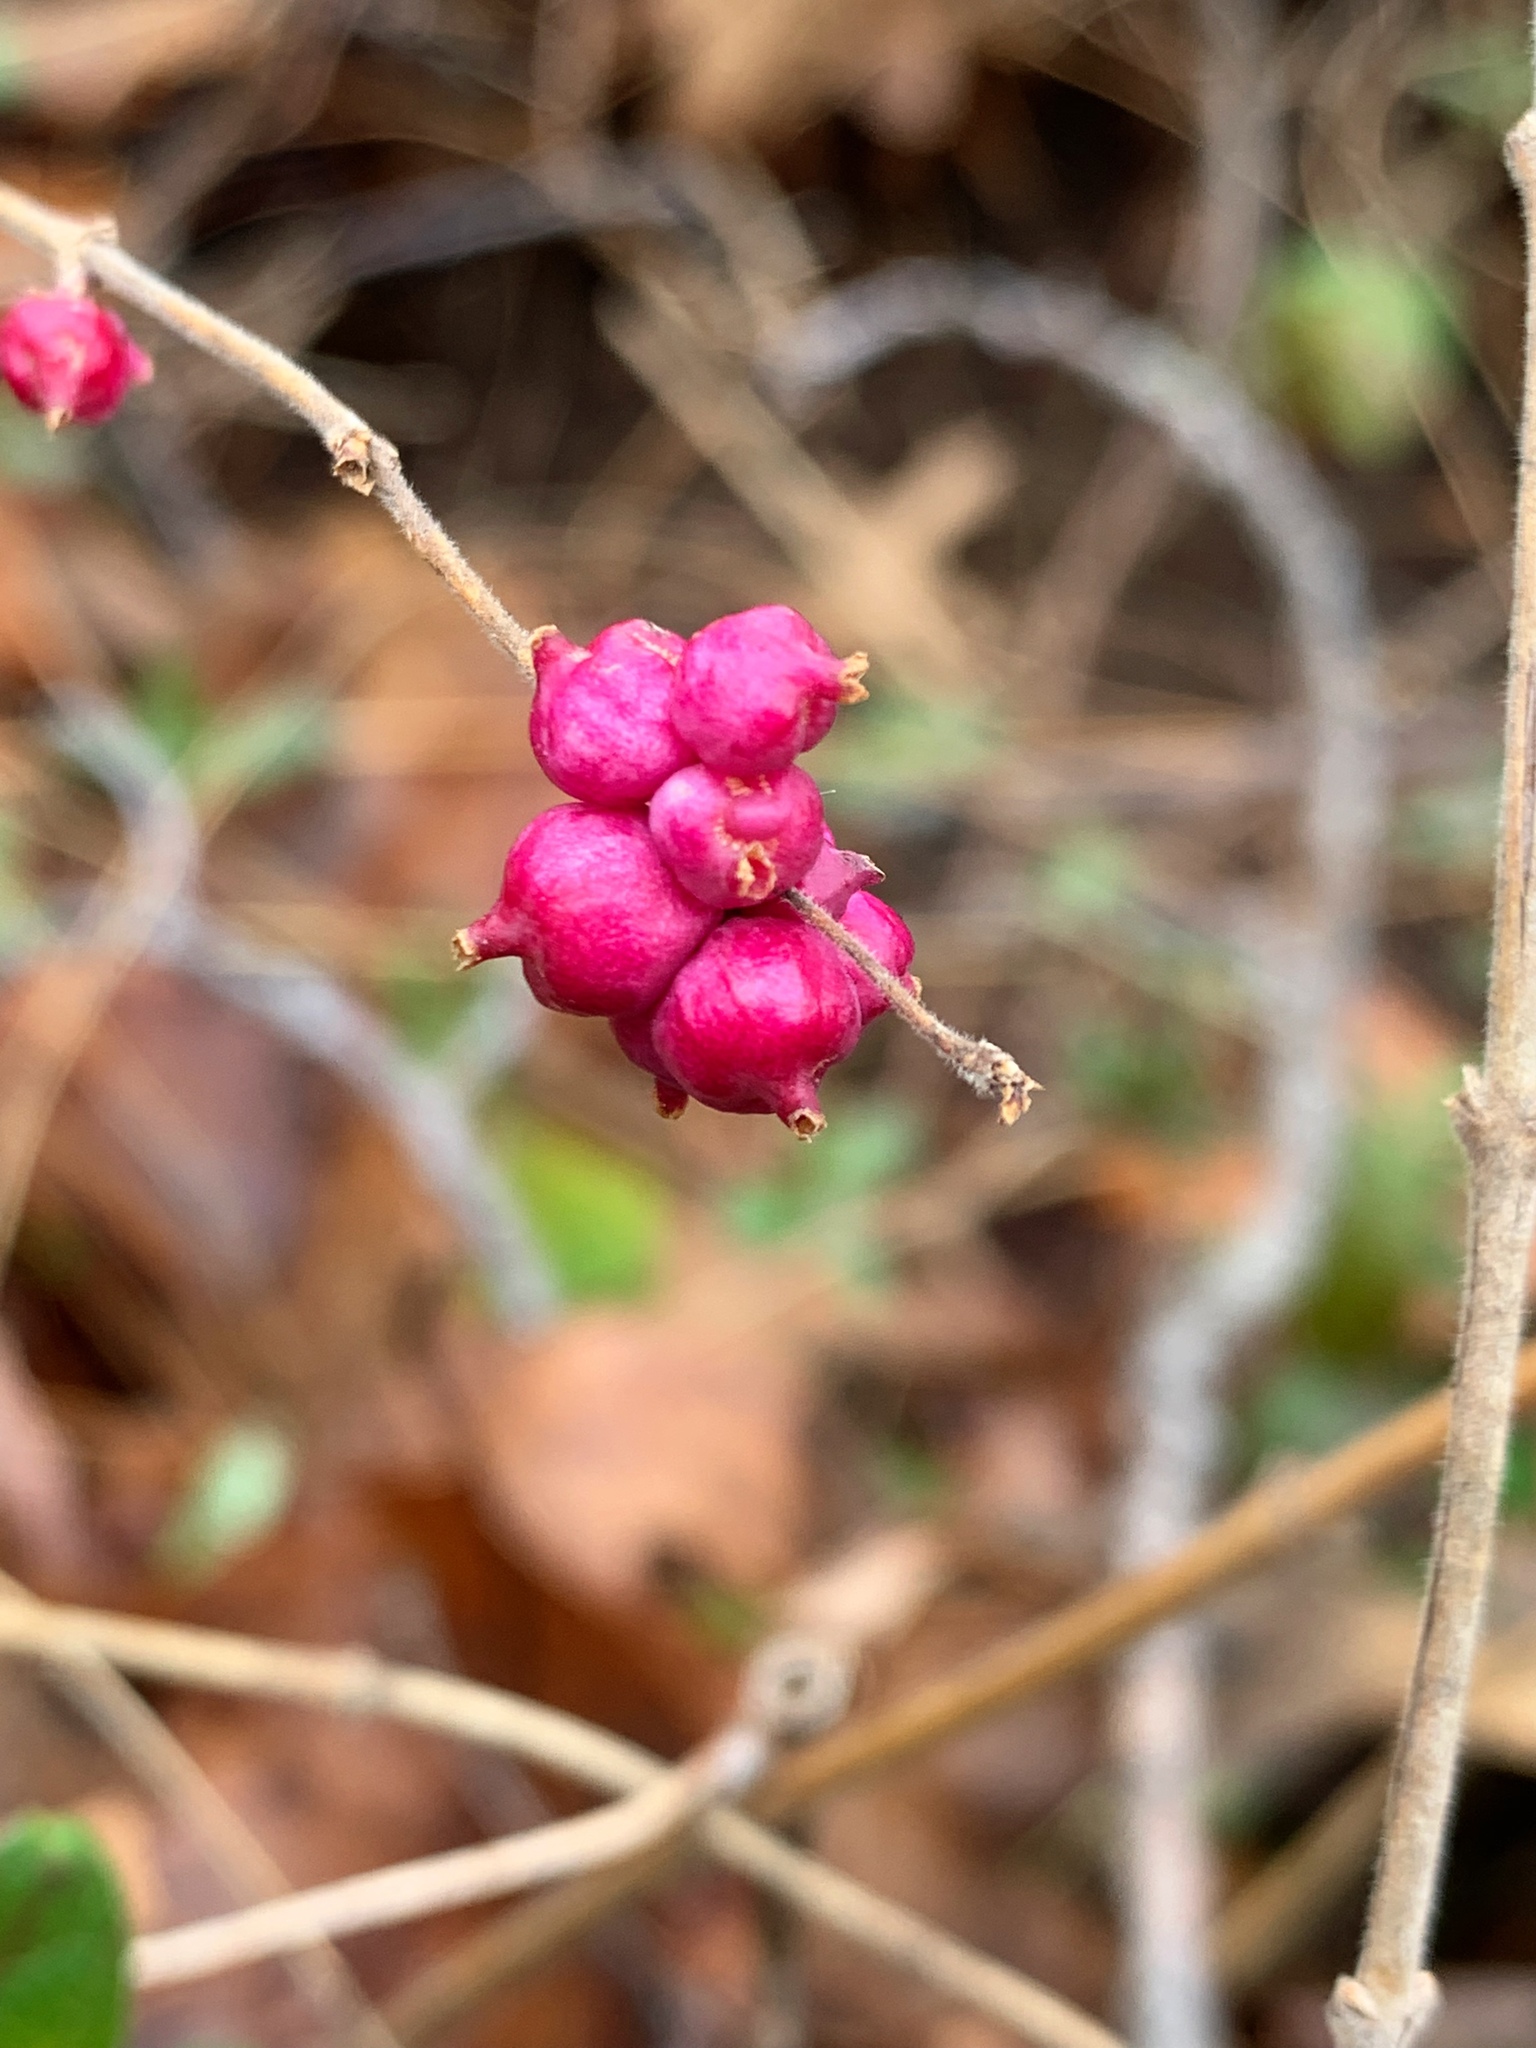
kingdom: Plantae
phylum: Tracheophyta
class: Magnoliopsida
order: Dipsacales
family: Caprifoliaceae
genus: Symphoricarpos
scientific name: Symphoricarpos orbiculatus
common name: Coralberry
